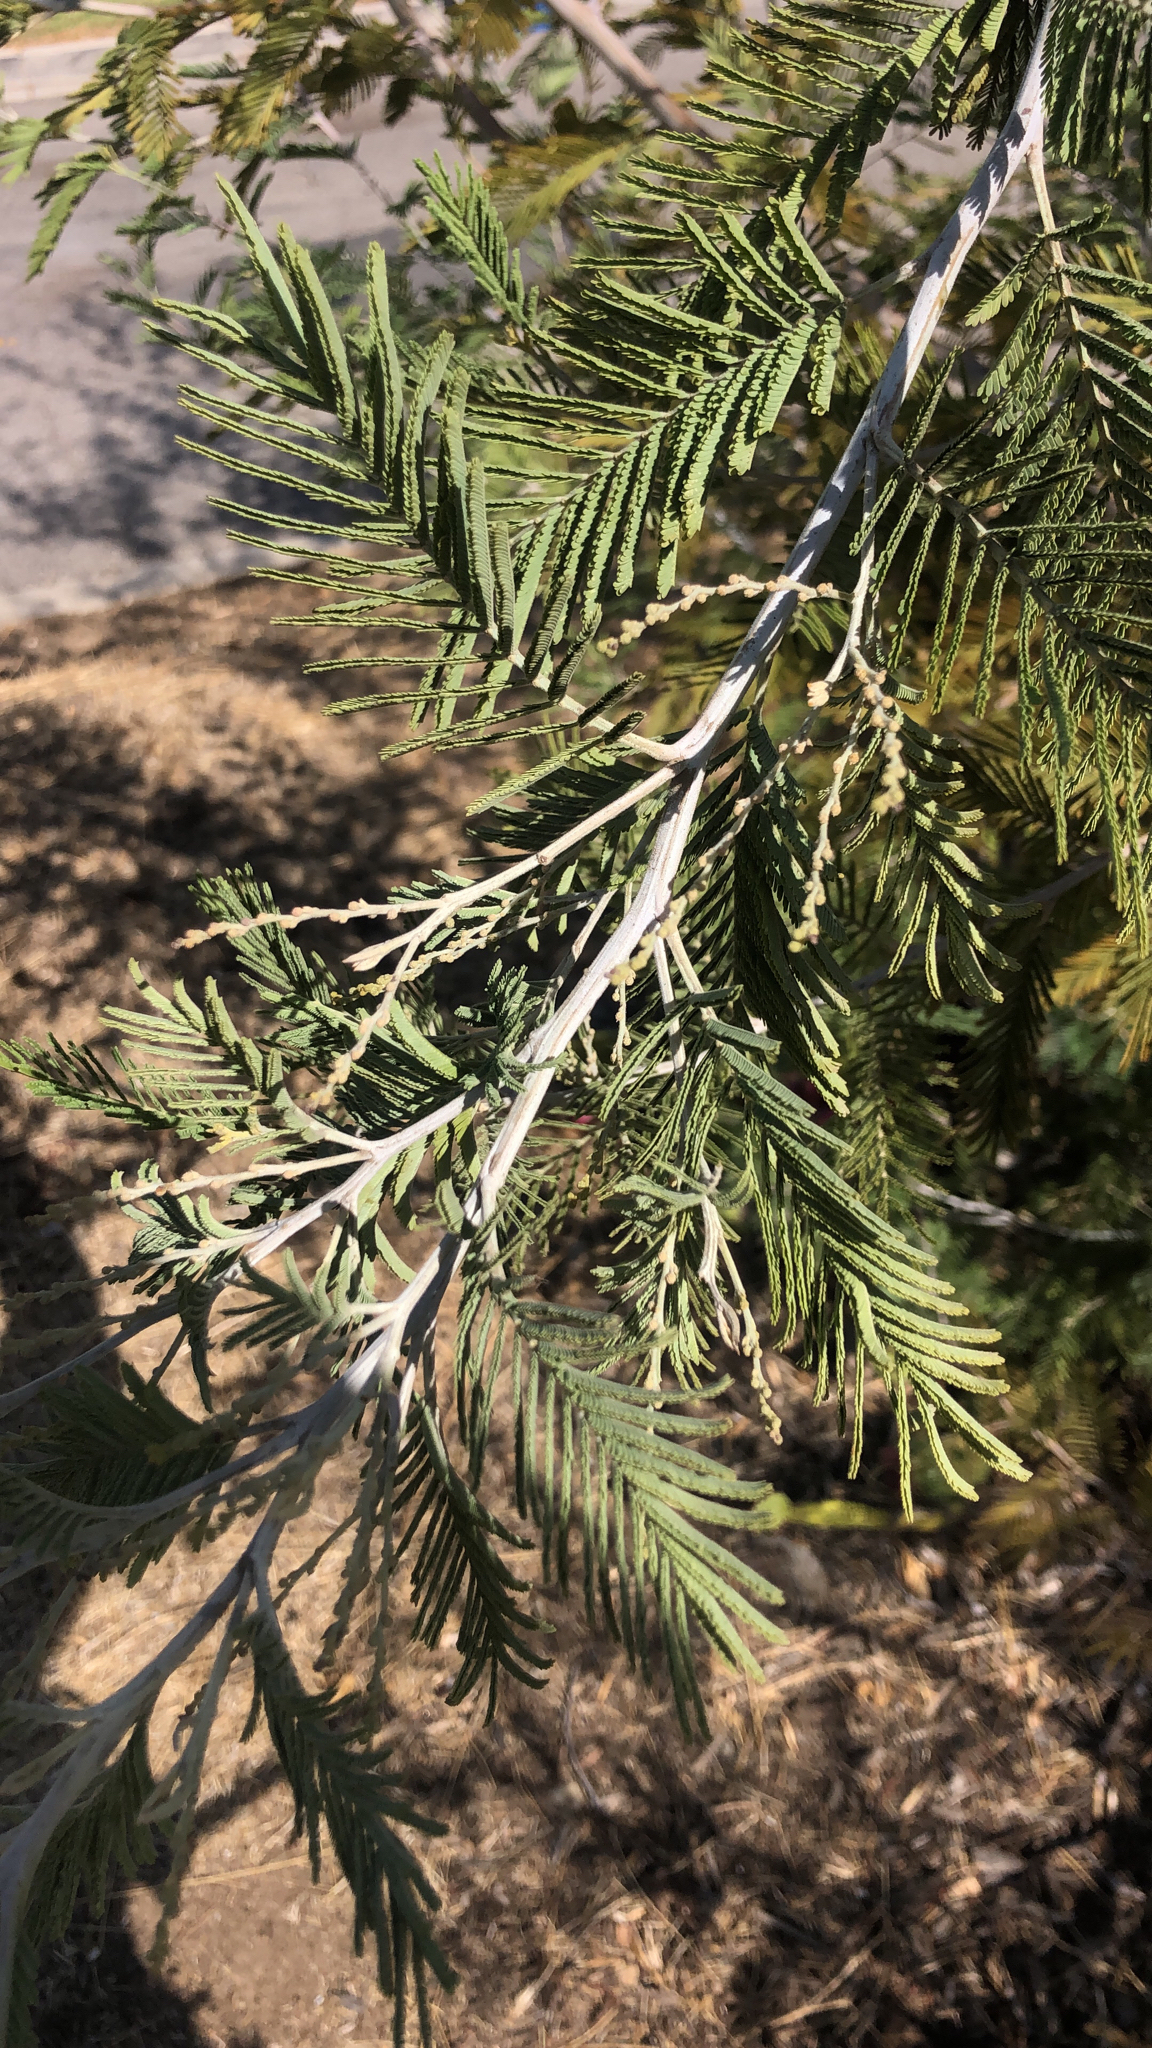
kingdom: Plantae
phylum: Tracheophyta
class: Magnoliopsida
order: Fabales
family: Fabaceae
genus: Acacia
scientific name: Acacia dealbata
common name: Silver wattle
